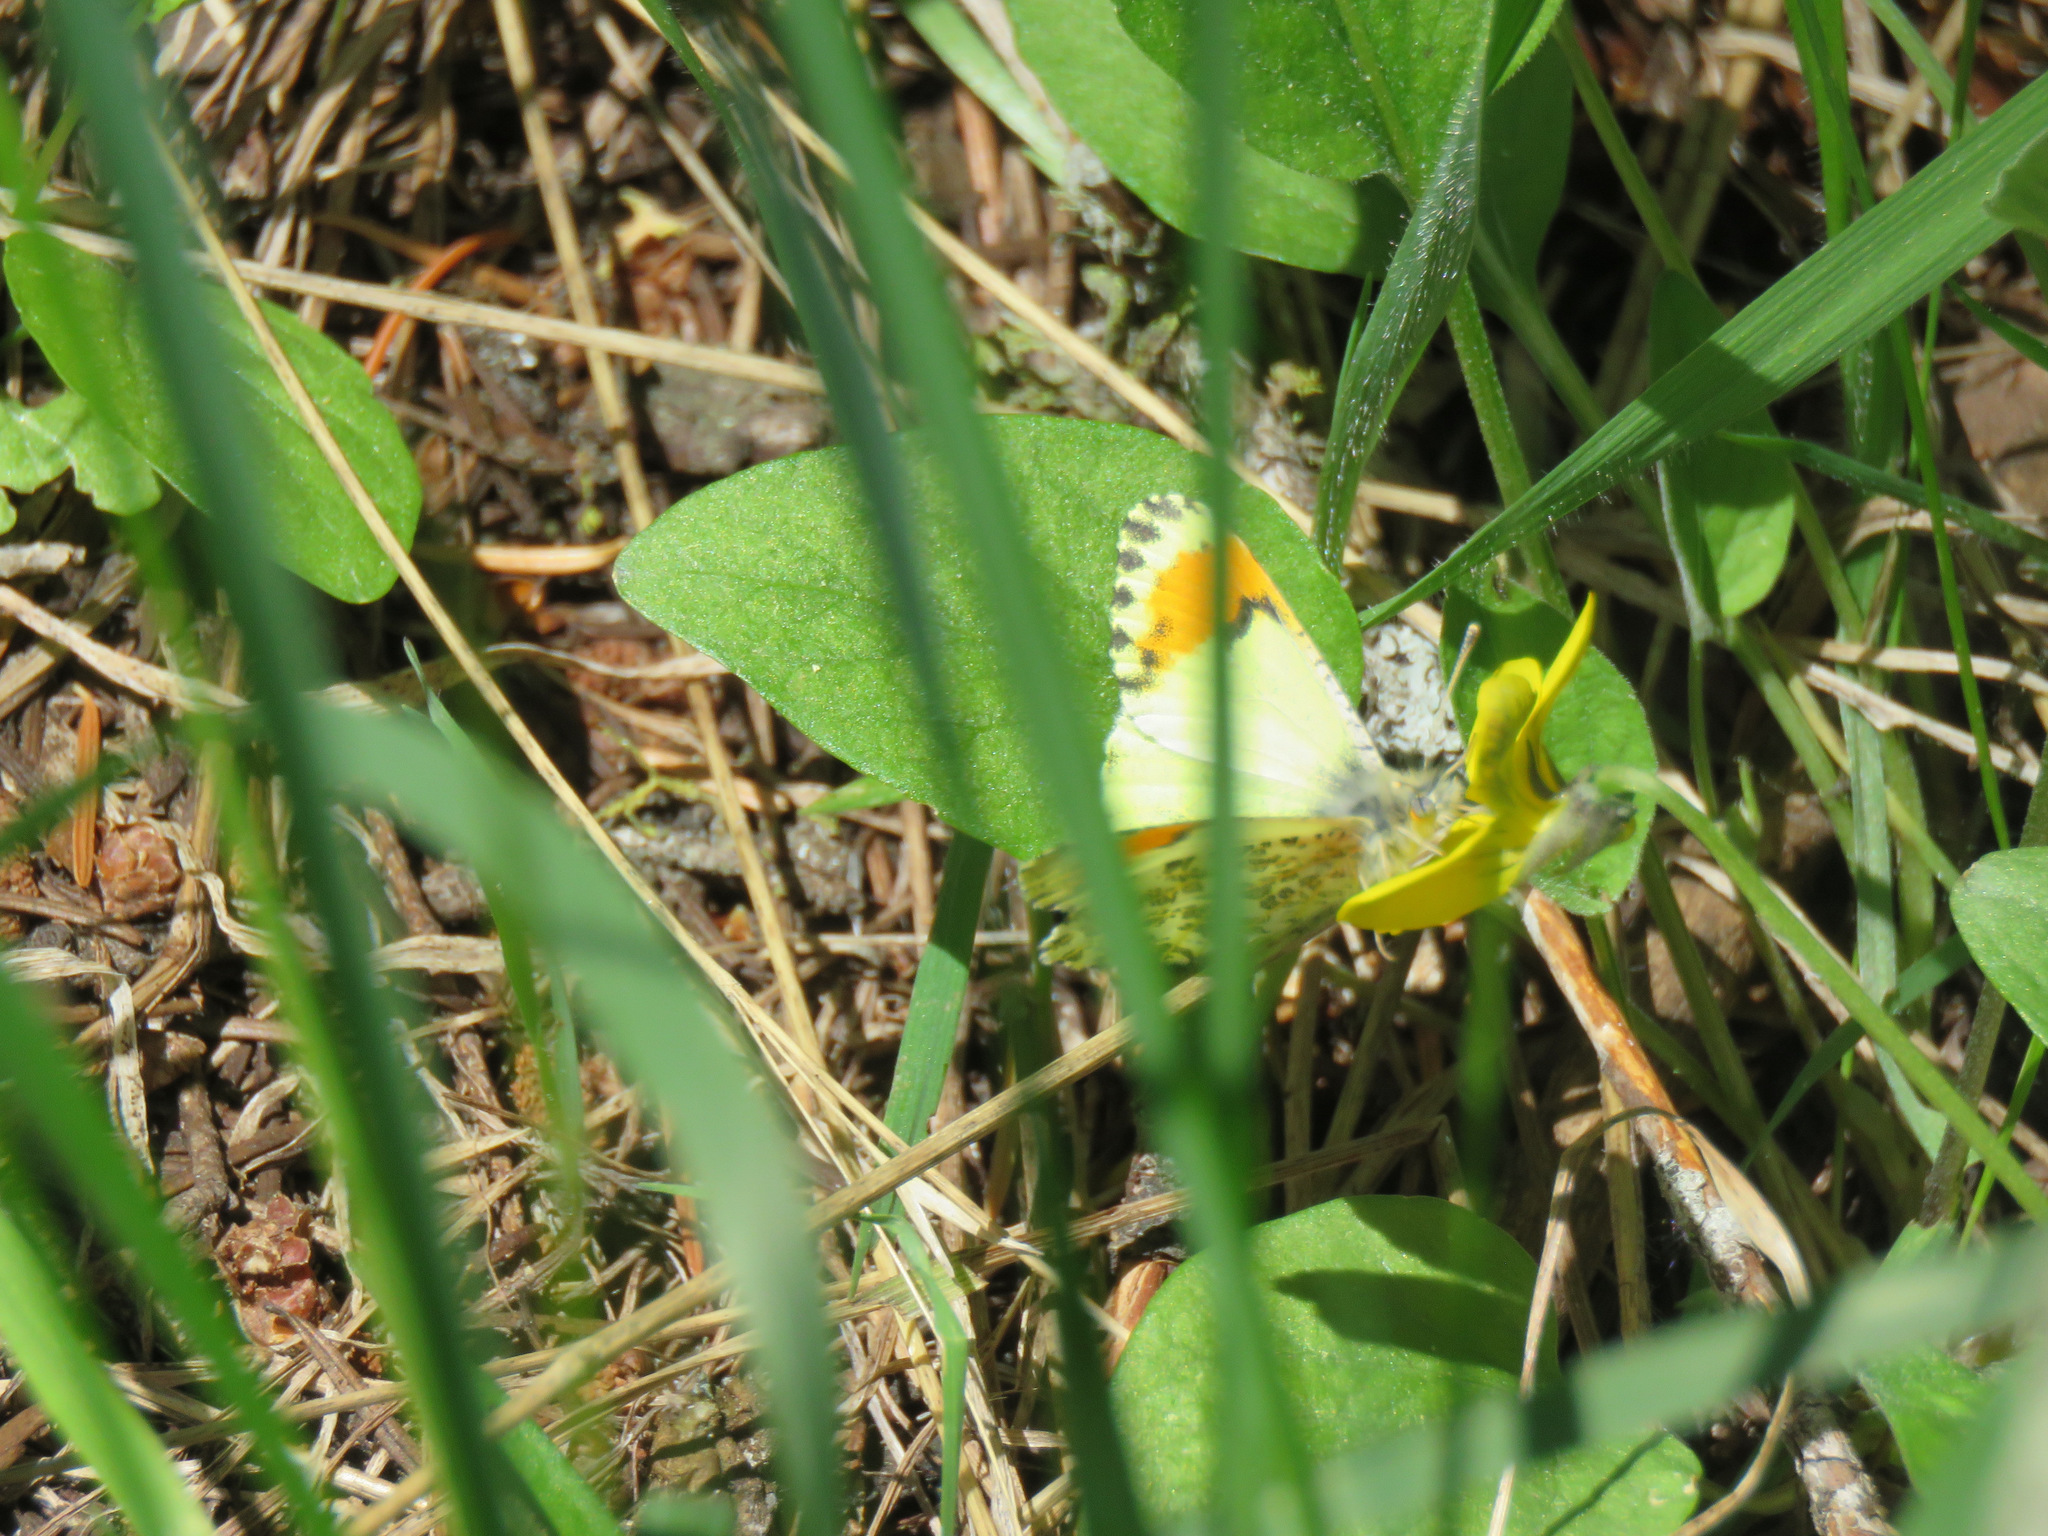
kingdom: Animalia
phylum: Arthropoda
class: Insecta
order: Lepidoptera
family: Pieridae
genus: Anthocharis
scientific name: Anthocharis julia
